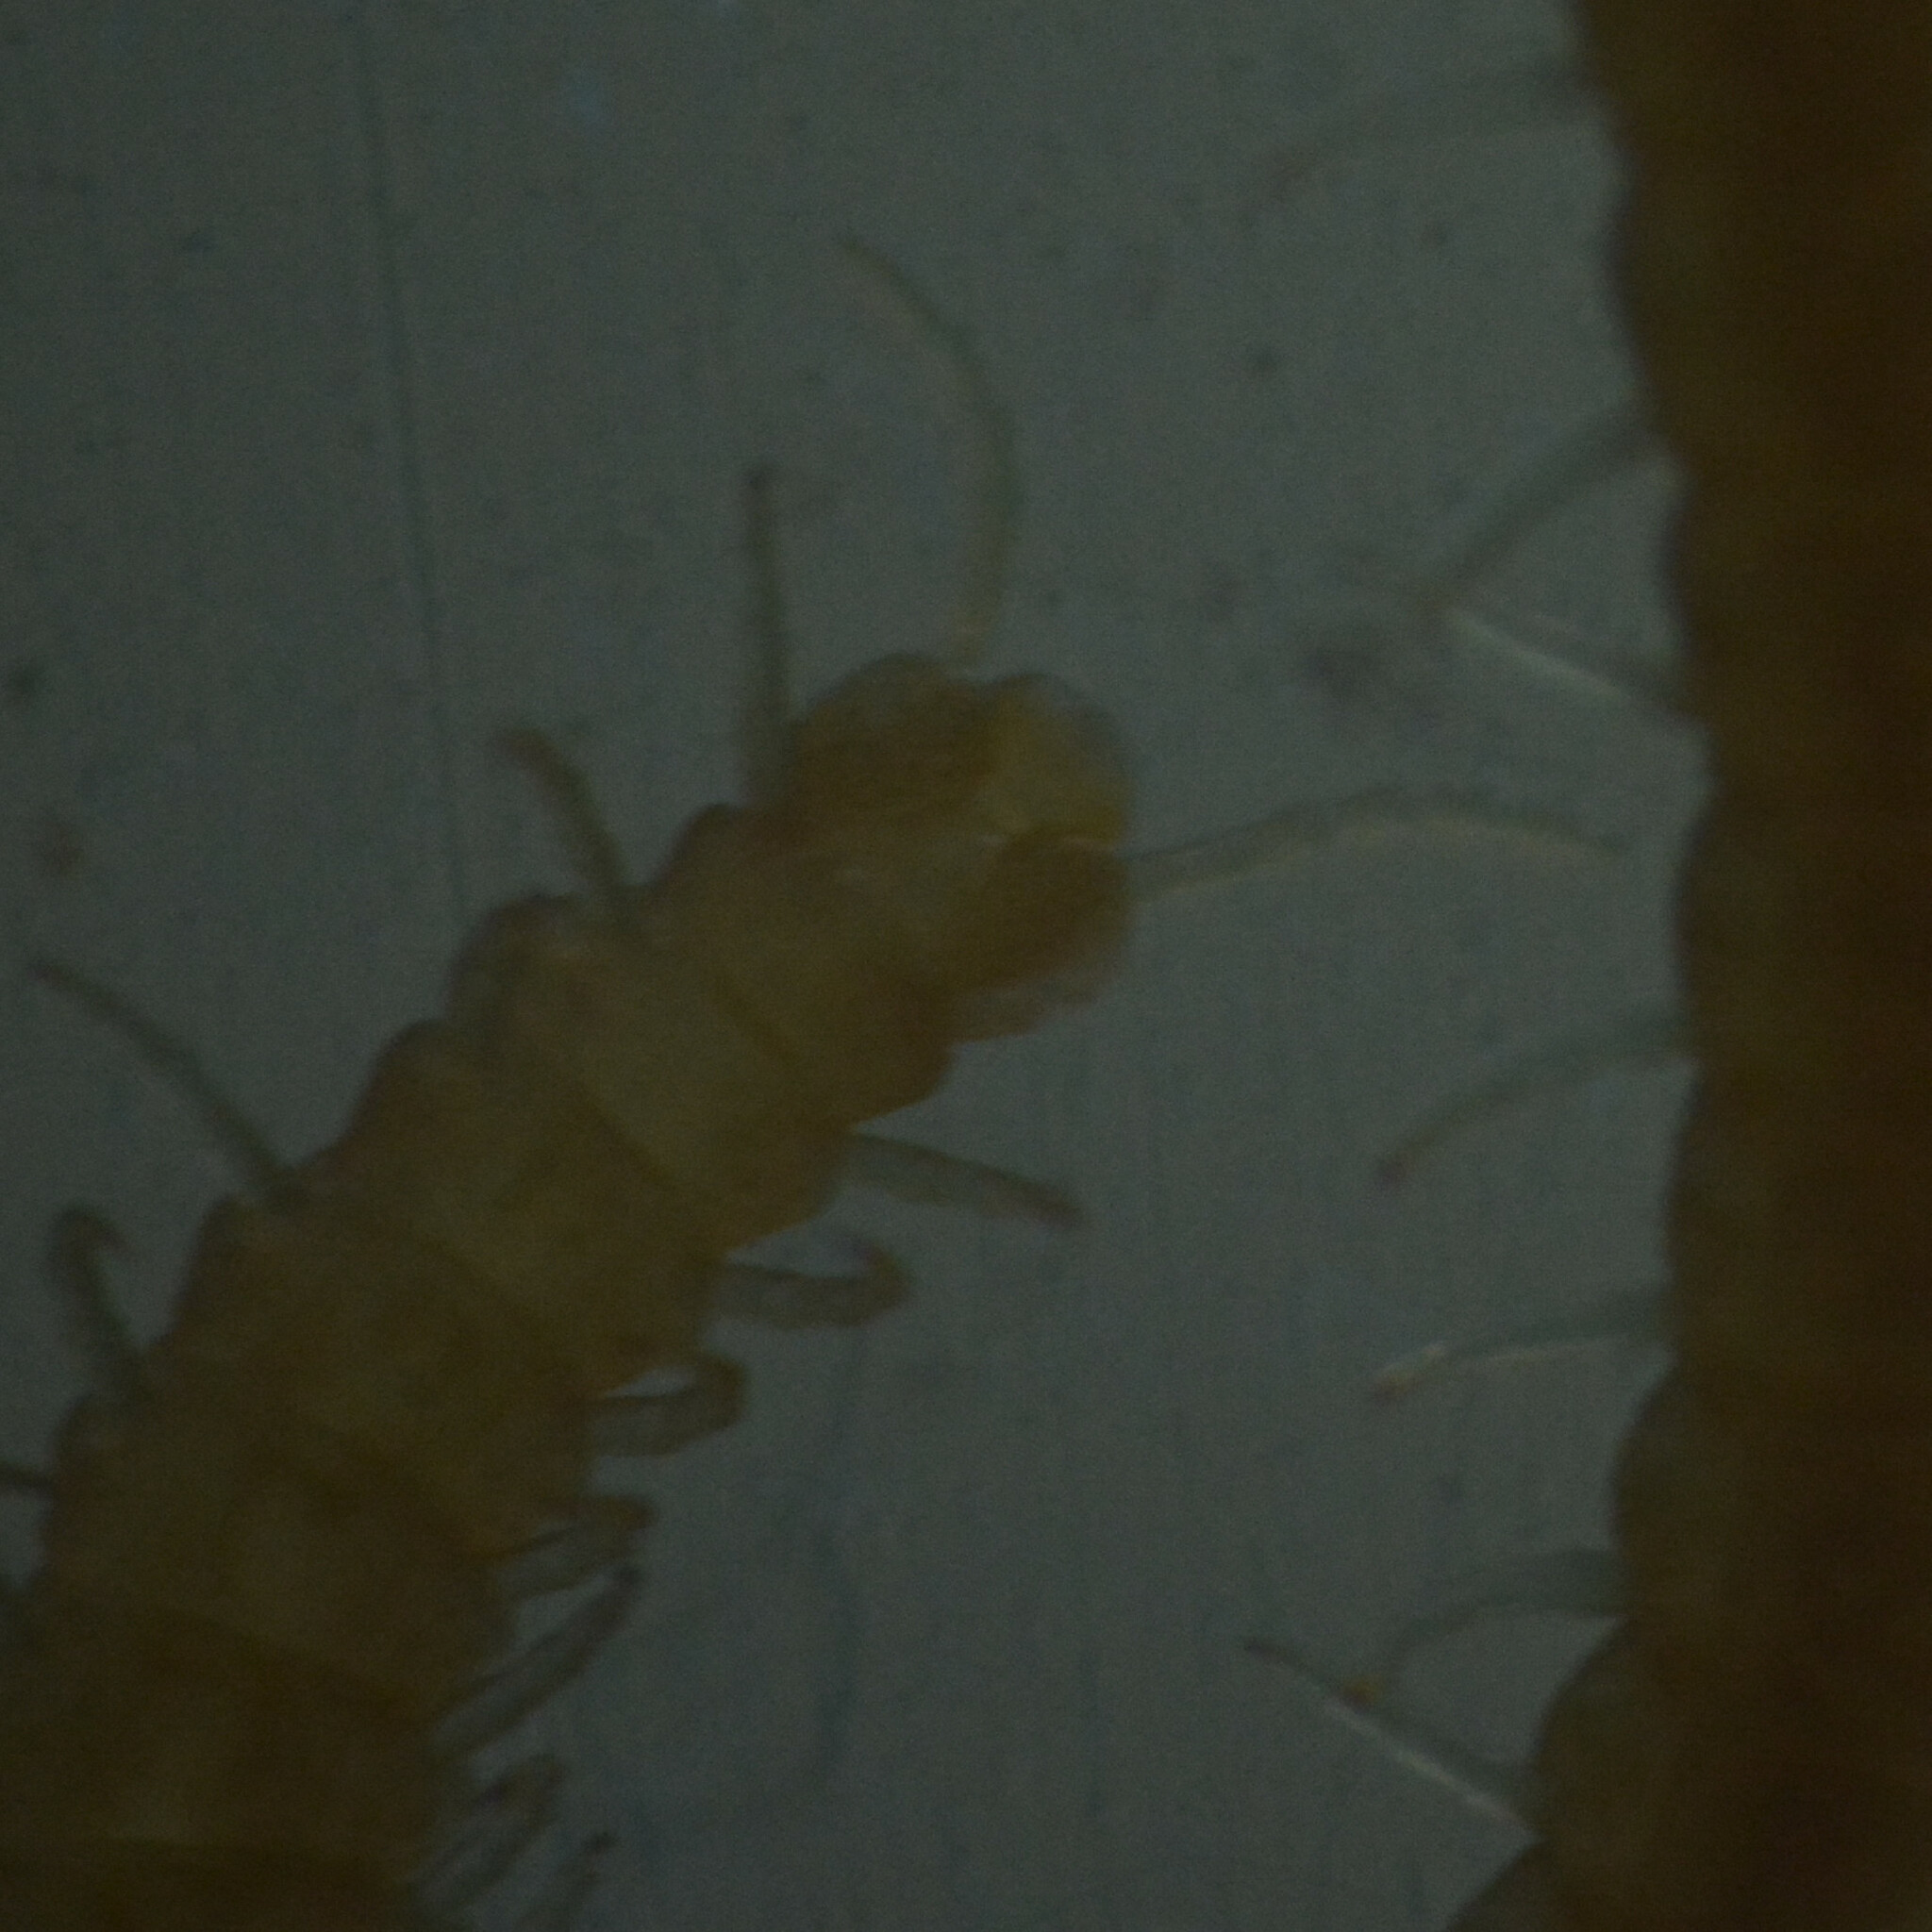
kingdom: Animalia
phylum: Arthropoda
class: Chilopoda
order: Geophilomorpha
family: Himantariidae
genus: Stigmatogaster
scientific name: Stigmatogaster subterranea
